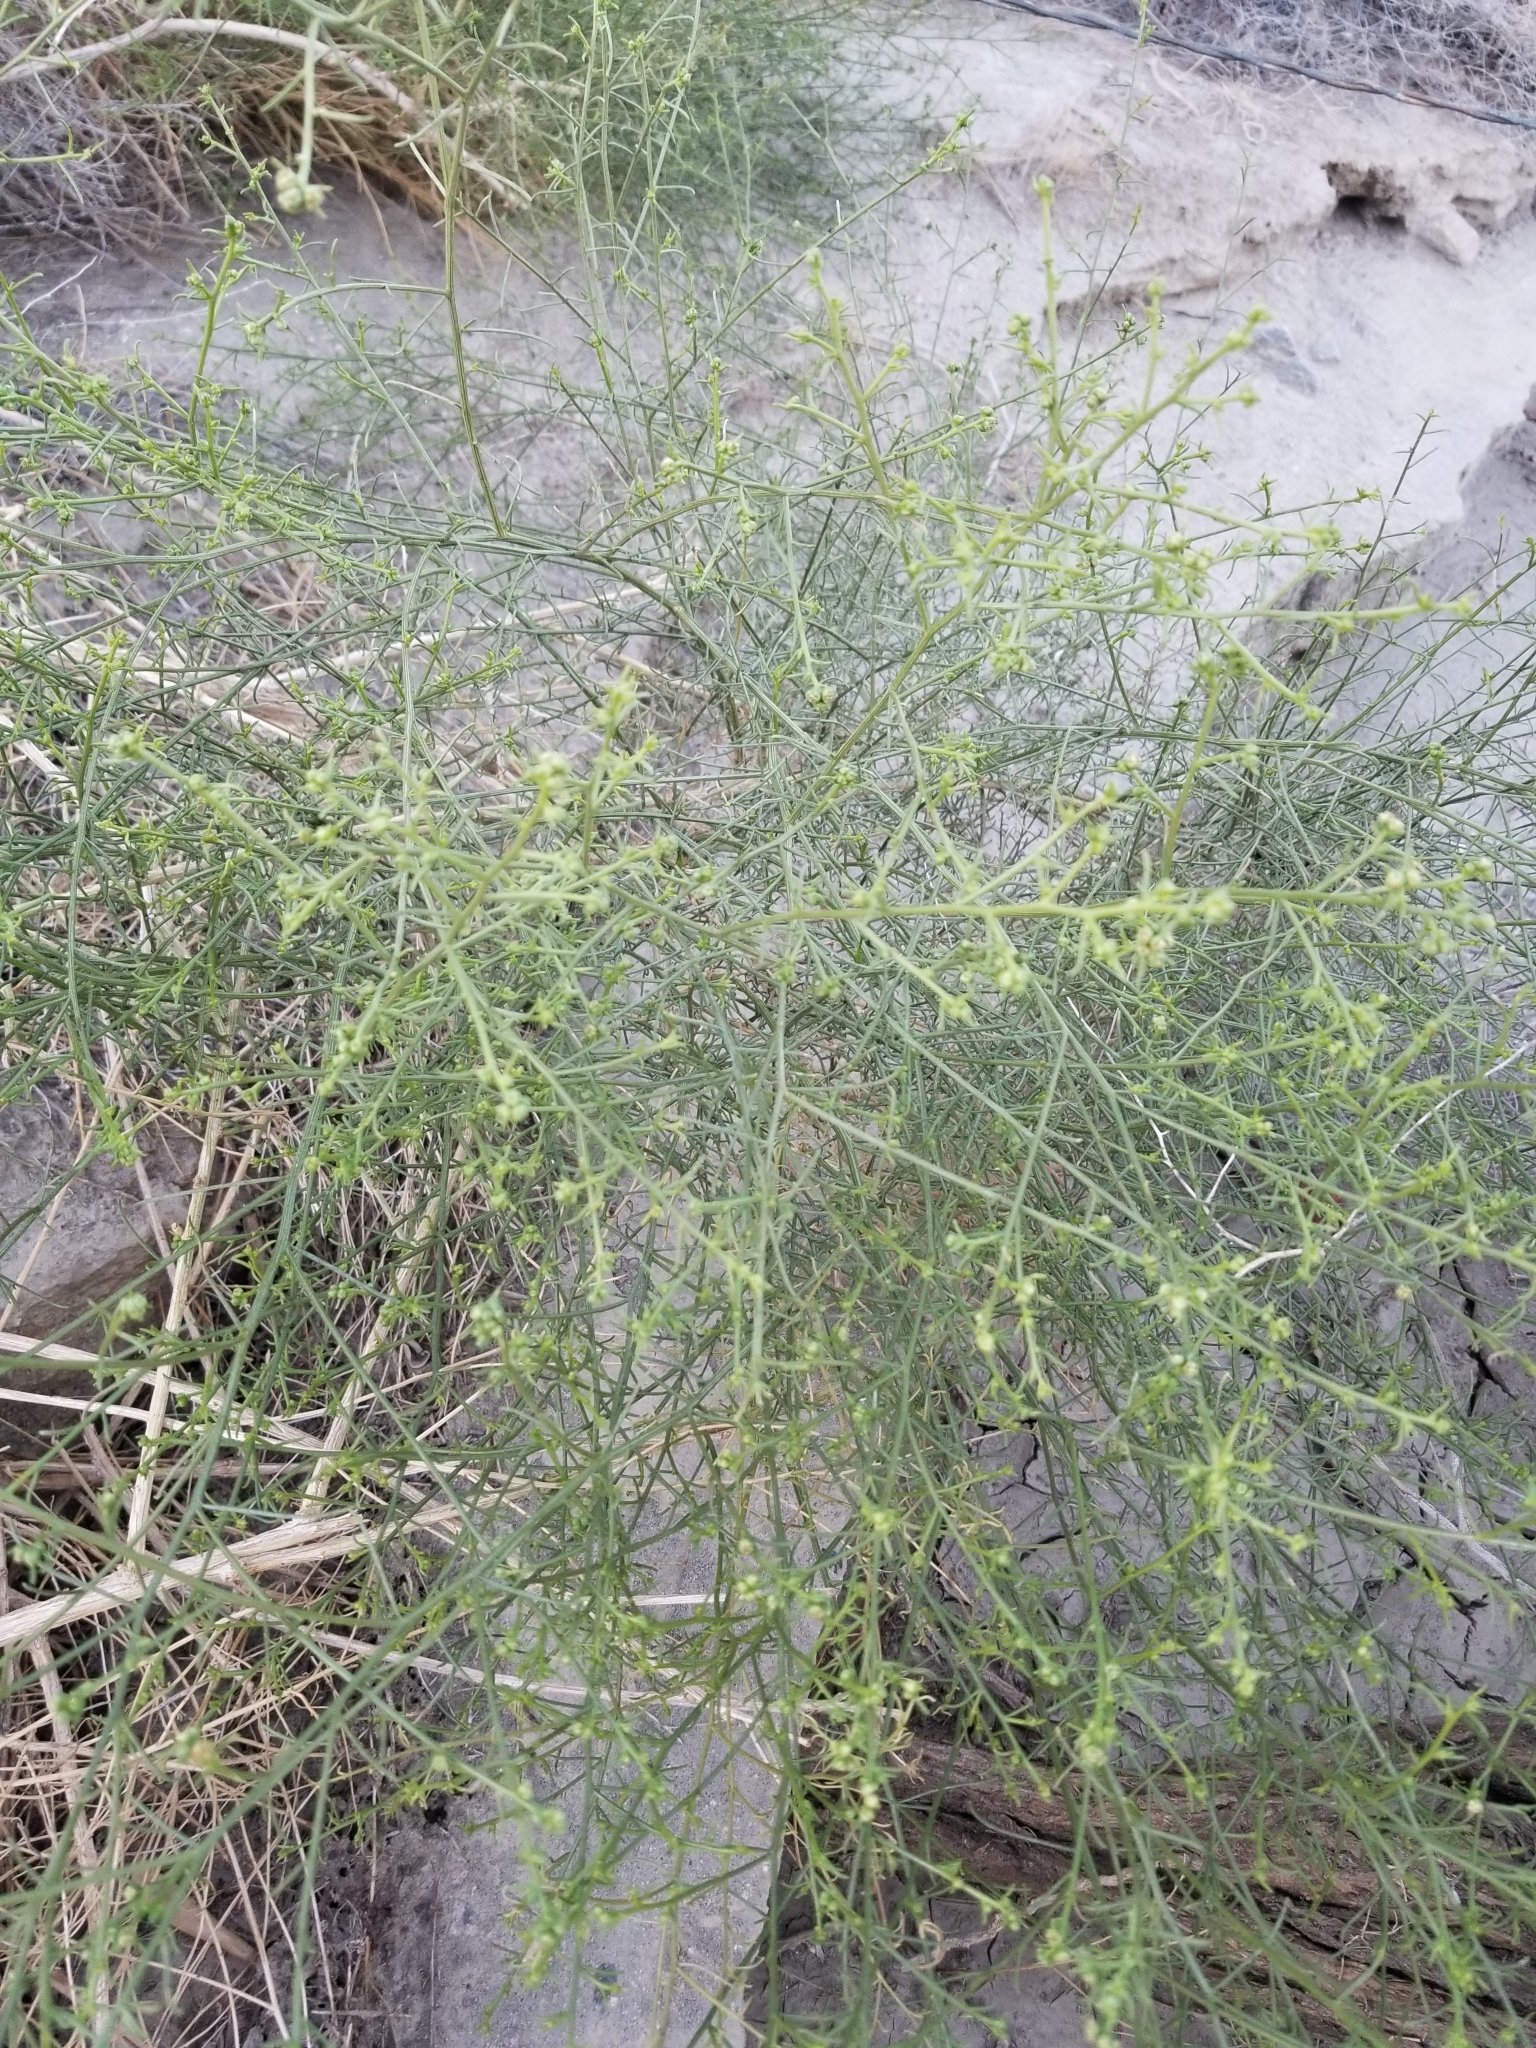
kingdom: Plantae
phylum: Tracheophyta
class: Magnoliopsida
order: Asterales
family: Asteraceae
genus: Ambrosia
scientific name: Ambrosia salsola
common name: Burrobrush
